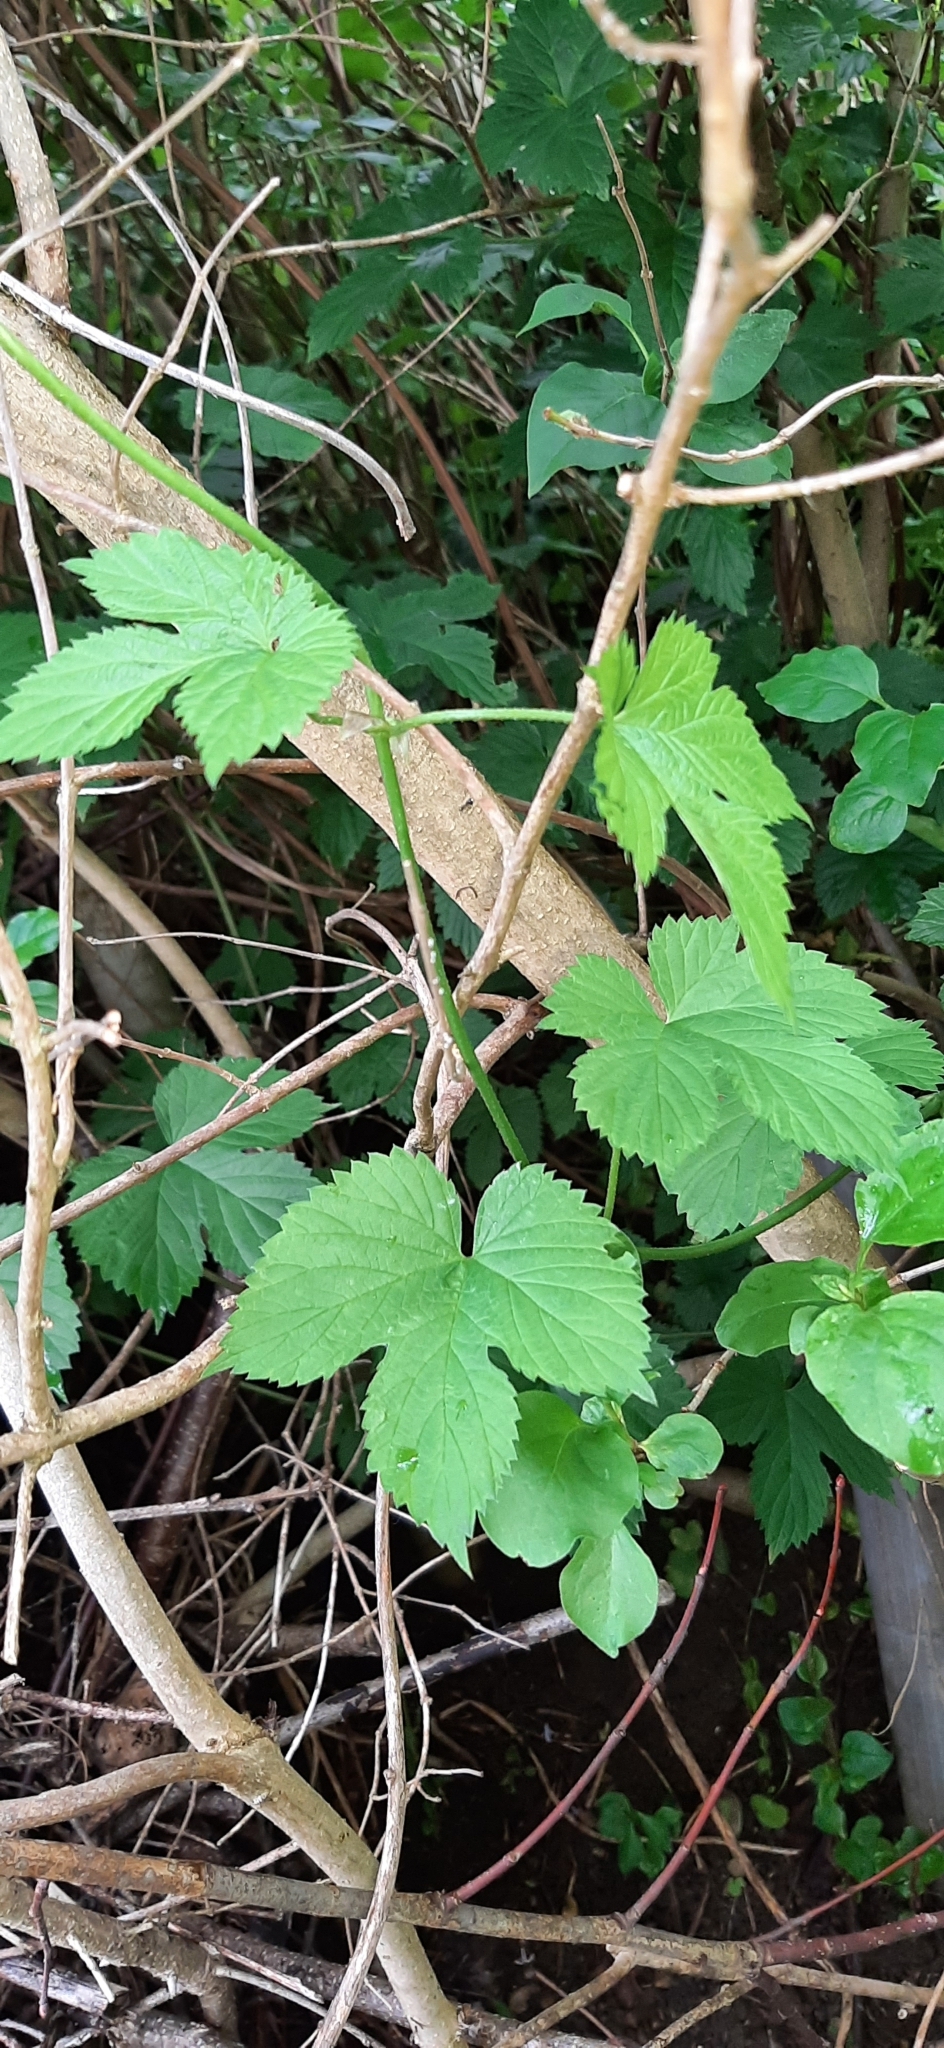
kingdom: Plantae
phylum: Tracheophyta
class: Magnoliopsida
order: Rosales
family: Cannabaceae
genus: Humulus
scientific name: Humulus lupulus
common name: Hop
